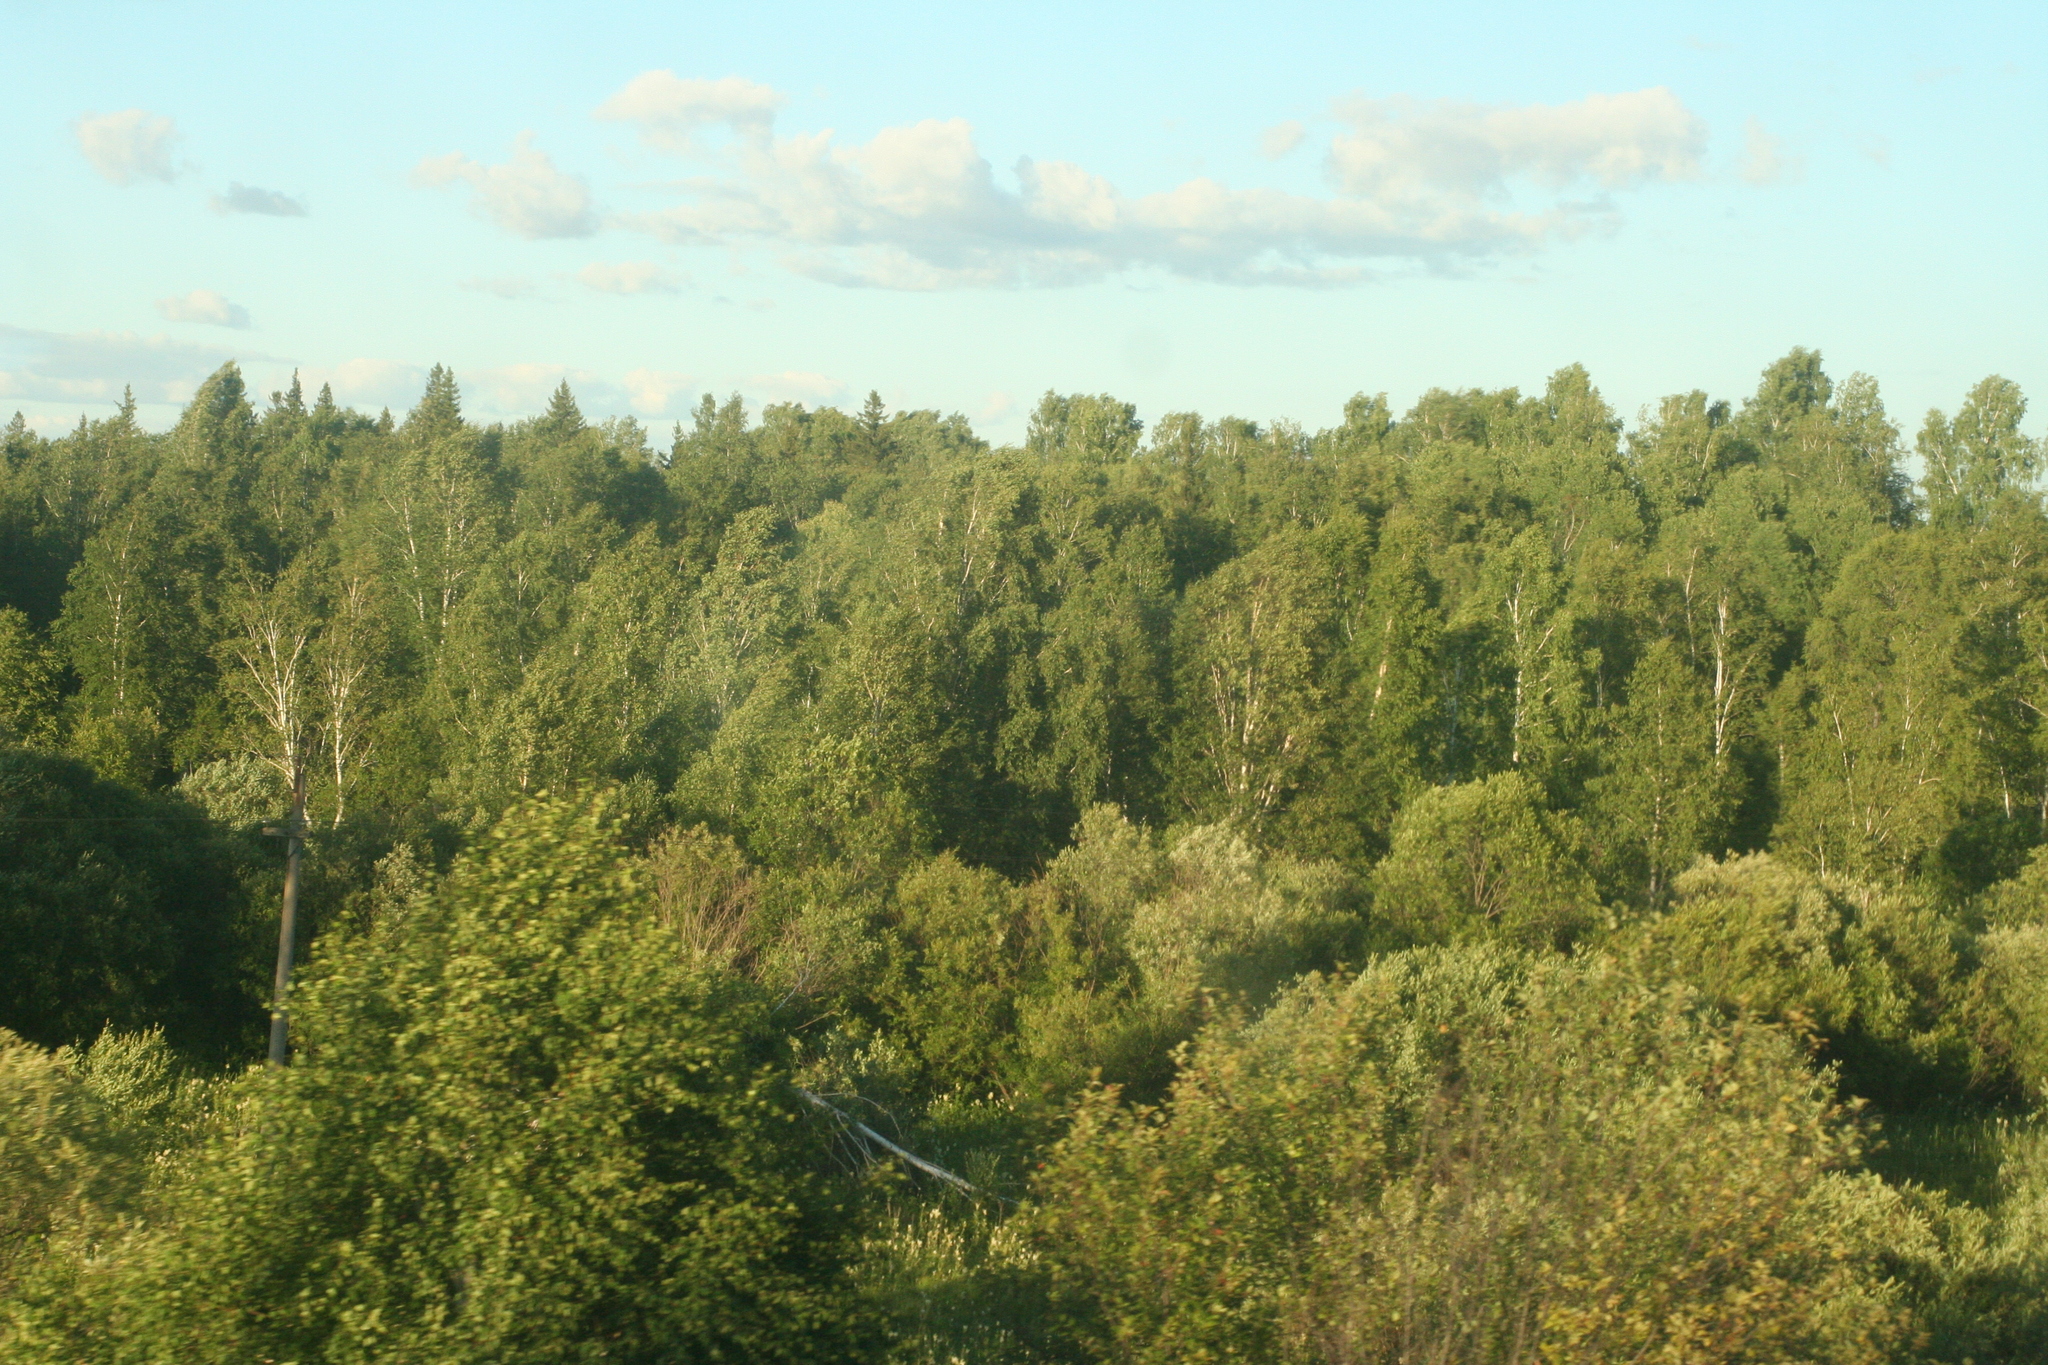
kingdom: Plantae
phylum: Tracheophyta
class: Magnoliopsida
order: Fagales
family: Betulaceae
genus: Betula
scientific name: Betula pendula
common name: Silver birch
